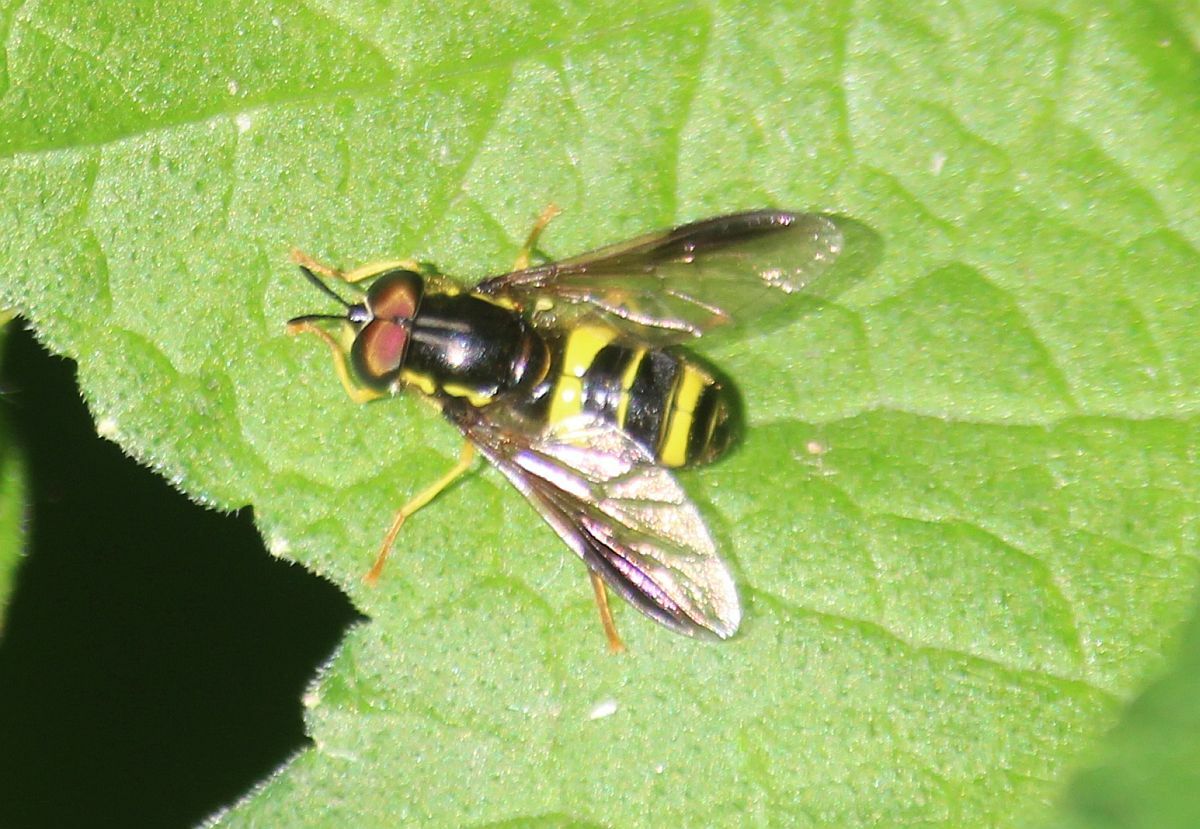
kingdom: Animalia
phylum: Arthropoda
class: Insecta
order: Diptera
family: Syrphidae
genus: Chrysotoxum
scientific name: Chrysotoxum bicincta
